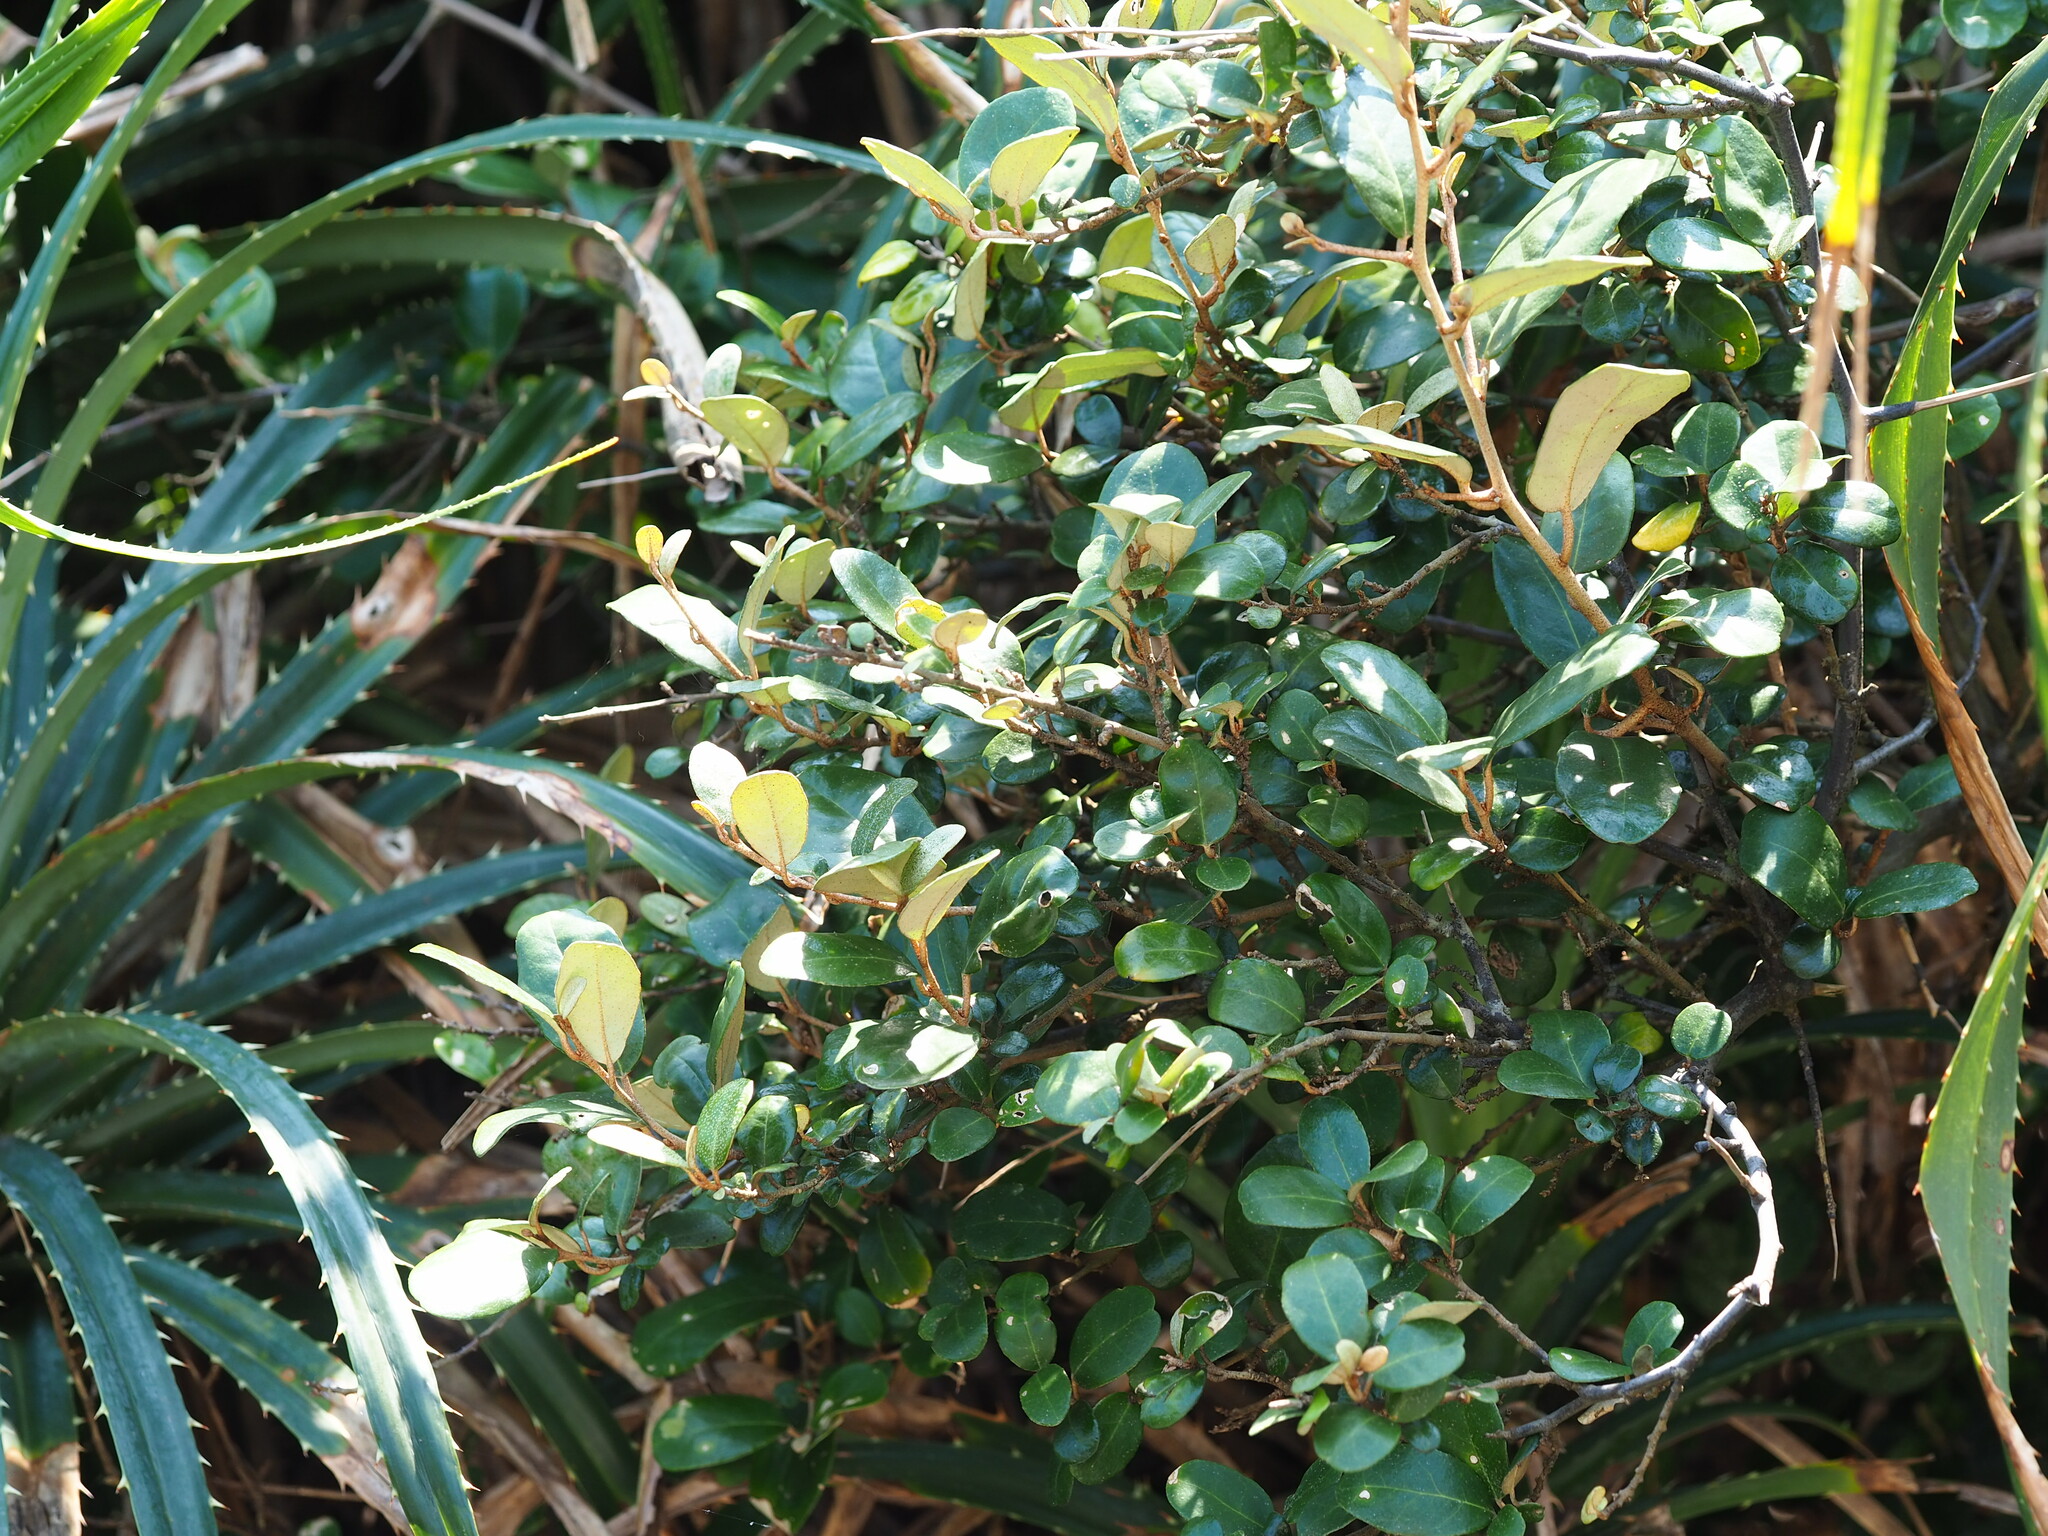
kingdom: Plantae
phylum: Tracheophyta
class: Magnoliopsida
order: Rosales
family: Elaeagnaceae
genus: Elaeagnus
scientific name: Elaeagnus formosana
